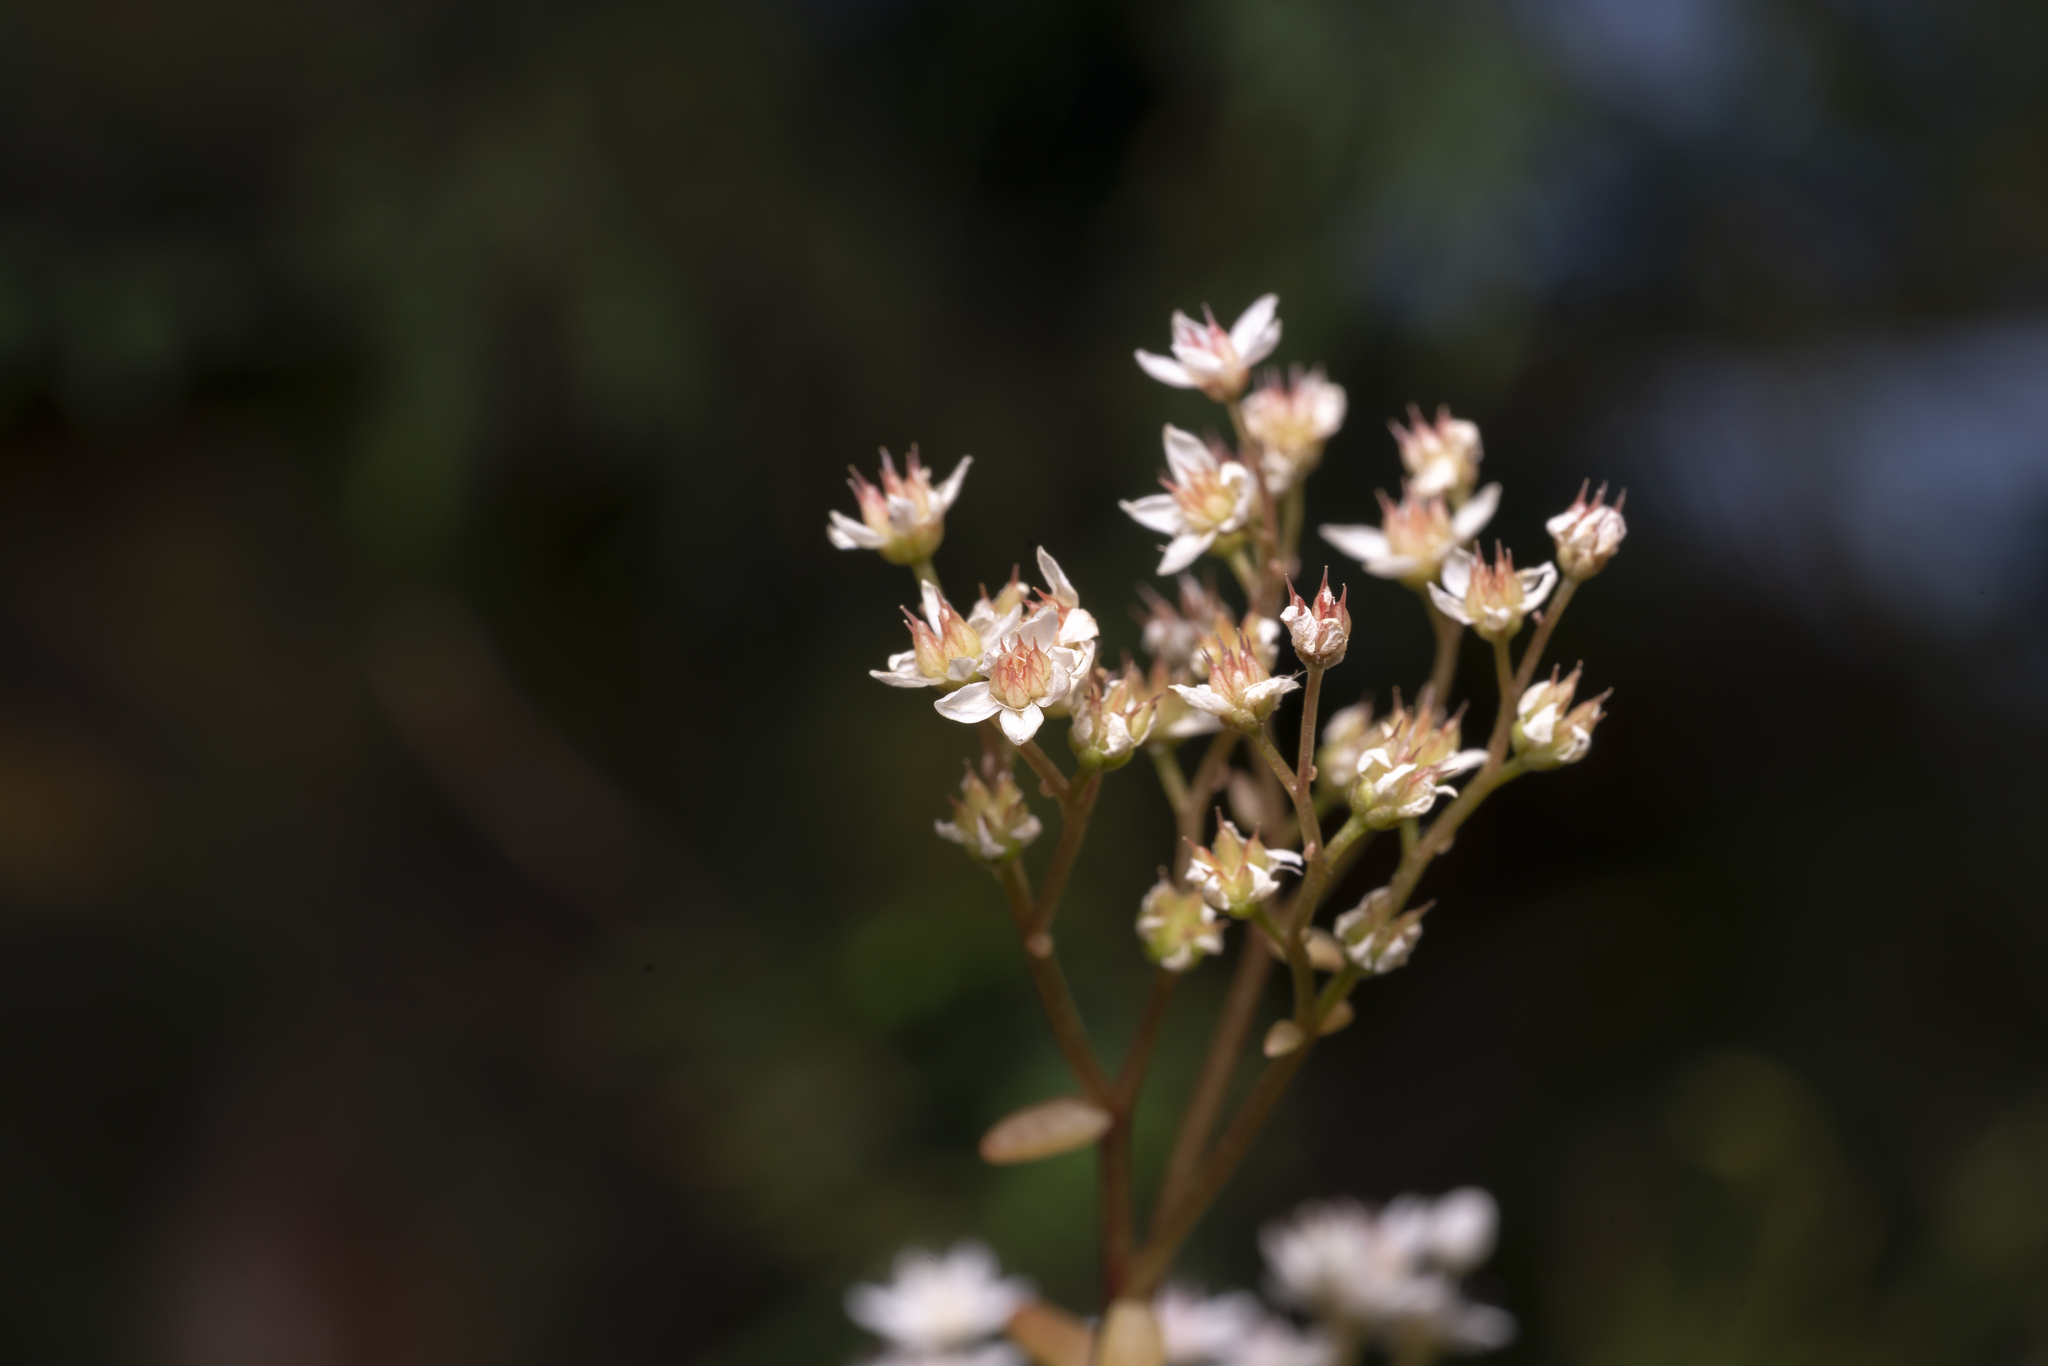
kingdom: Plantae
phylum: Tracheophyta
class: Magnoliopsida
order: Saxifragales
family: Crassulaceae
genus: Sedum
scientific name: Sedum album
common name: White stonecrop
